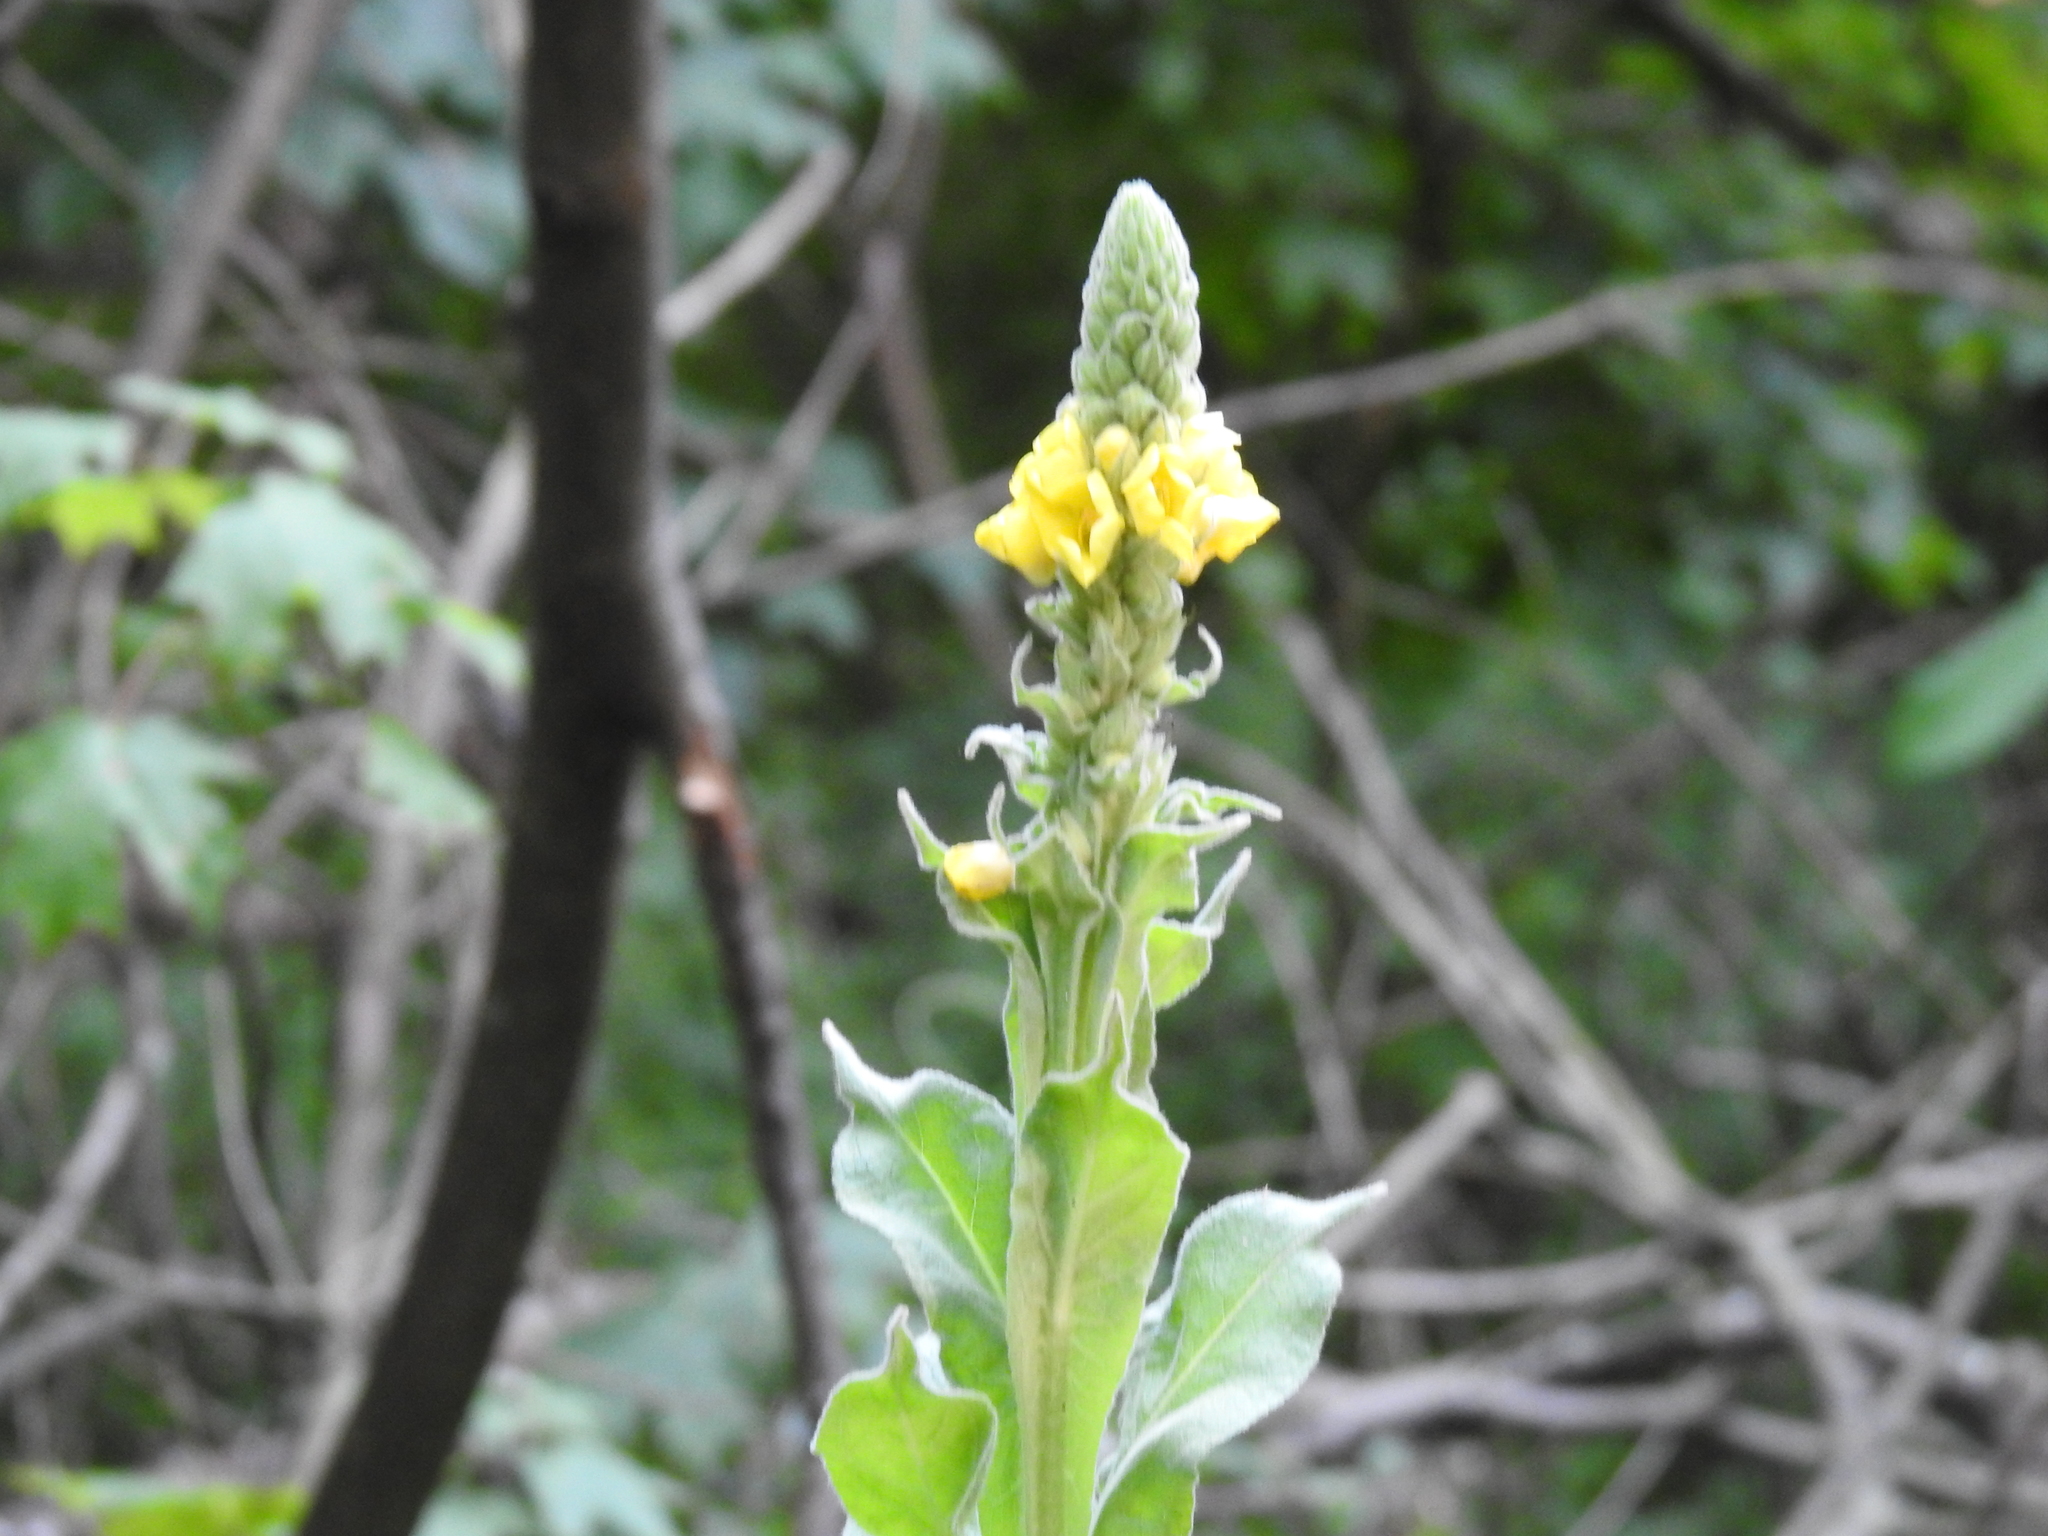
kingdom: Plantae
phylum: Tracheophyta
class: Magnoliopsida
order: Lamiales
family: Scrophulariaceae
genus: Verbascum
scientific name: Verbascum thapsus
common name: Common mullein
